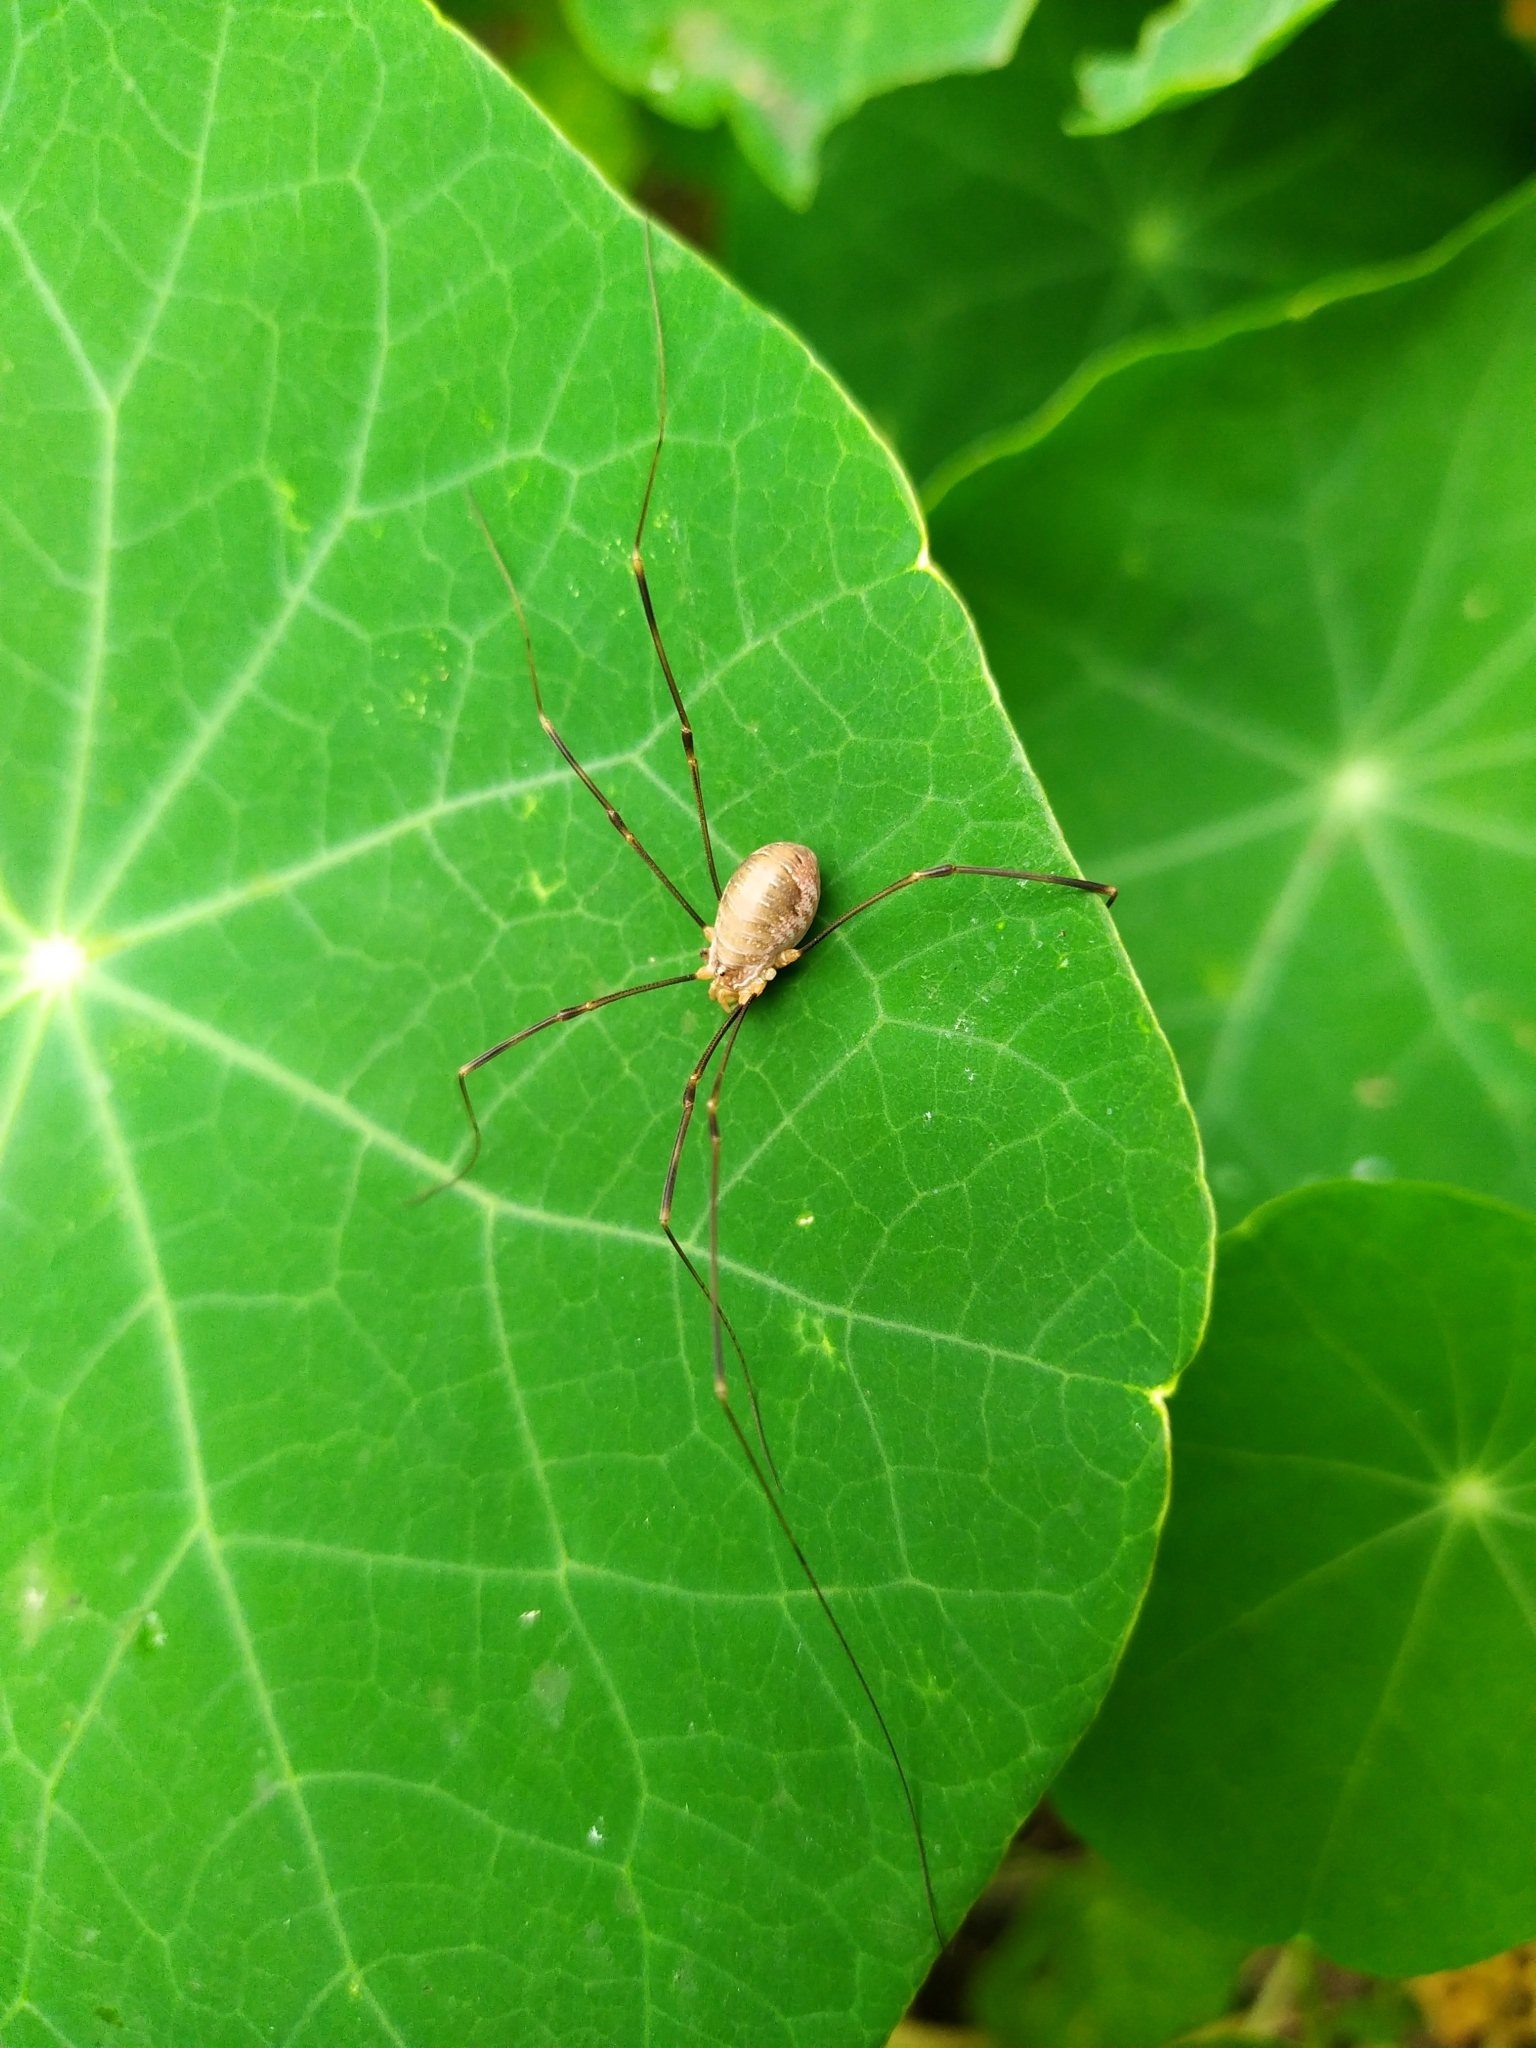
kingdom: Animalia
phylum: Arthropoda
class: Arachnida
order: Opiliones
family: Phalangiidae
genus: Opilio
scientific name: Opilio canestrinii
